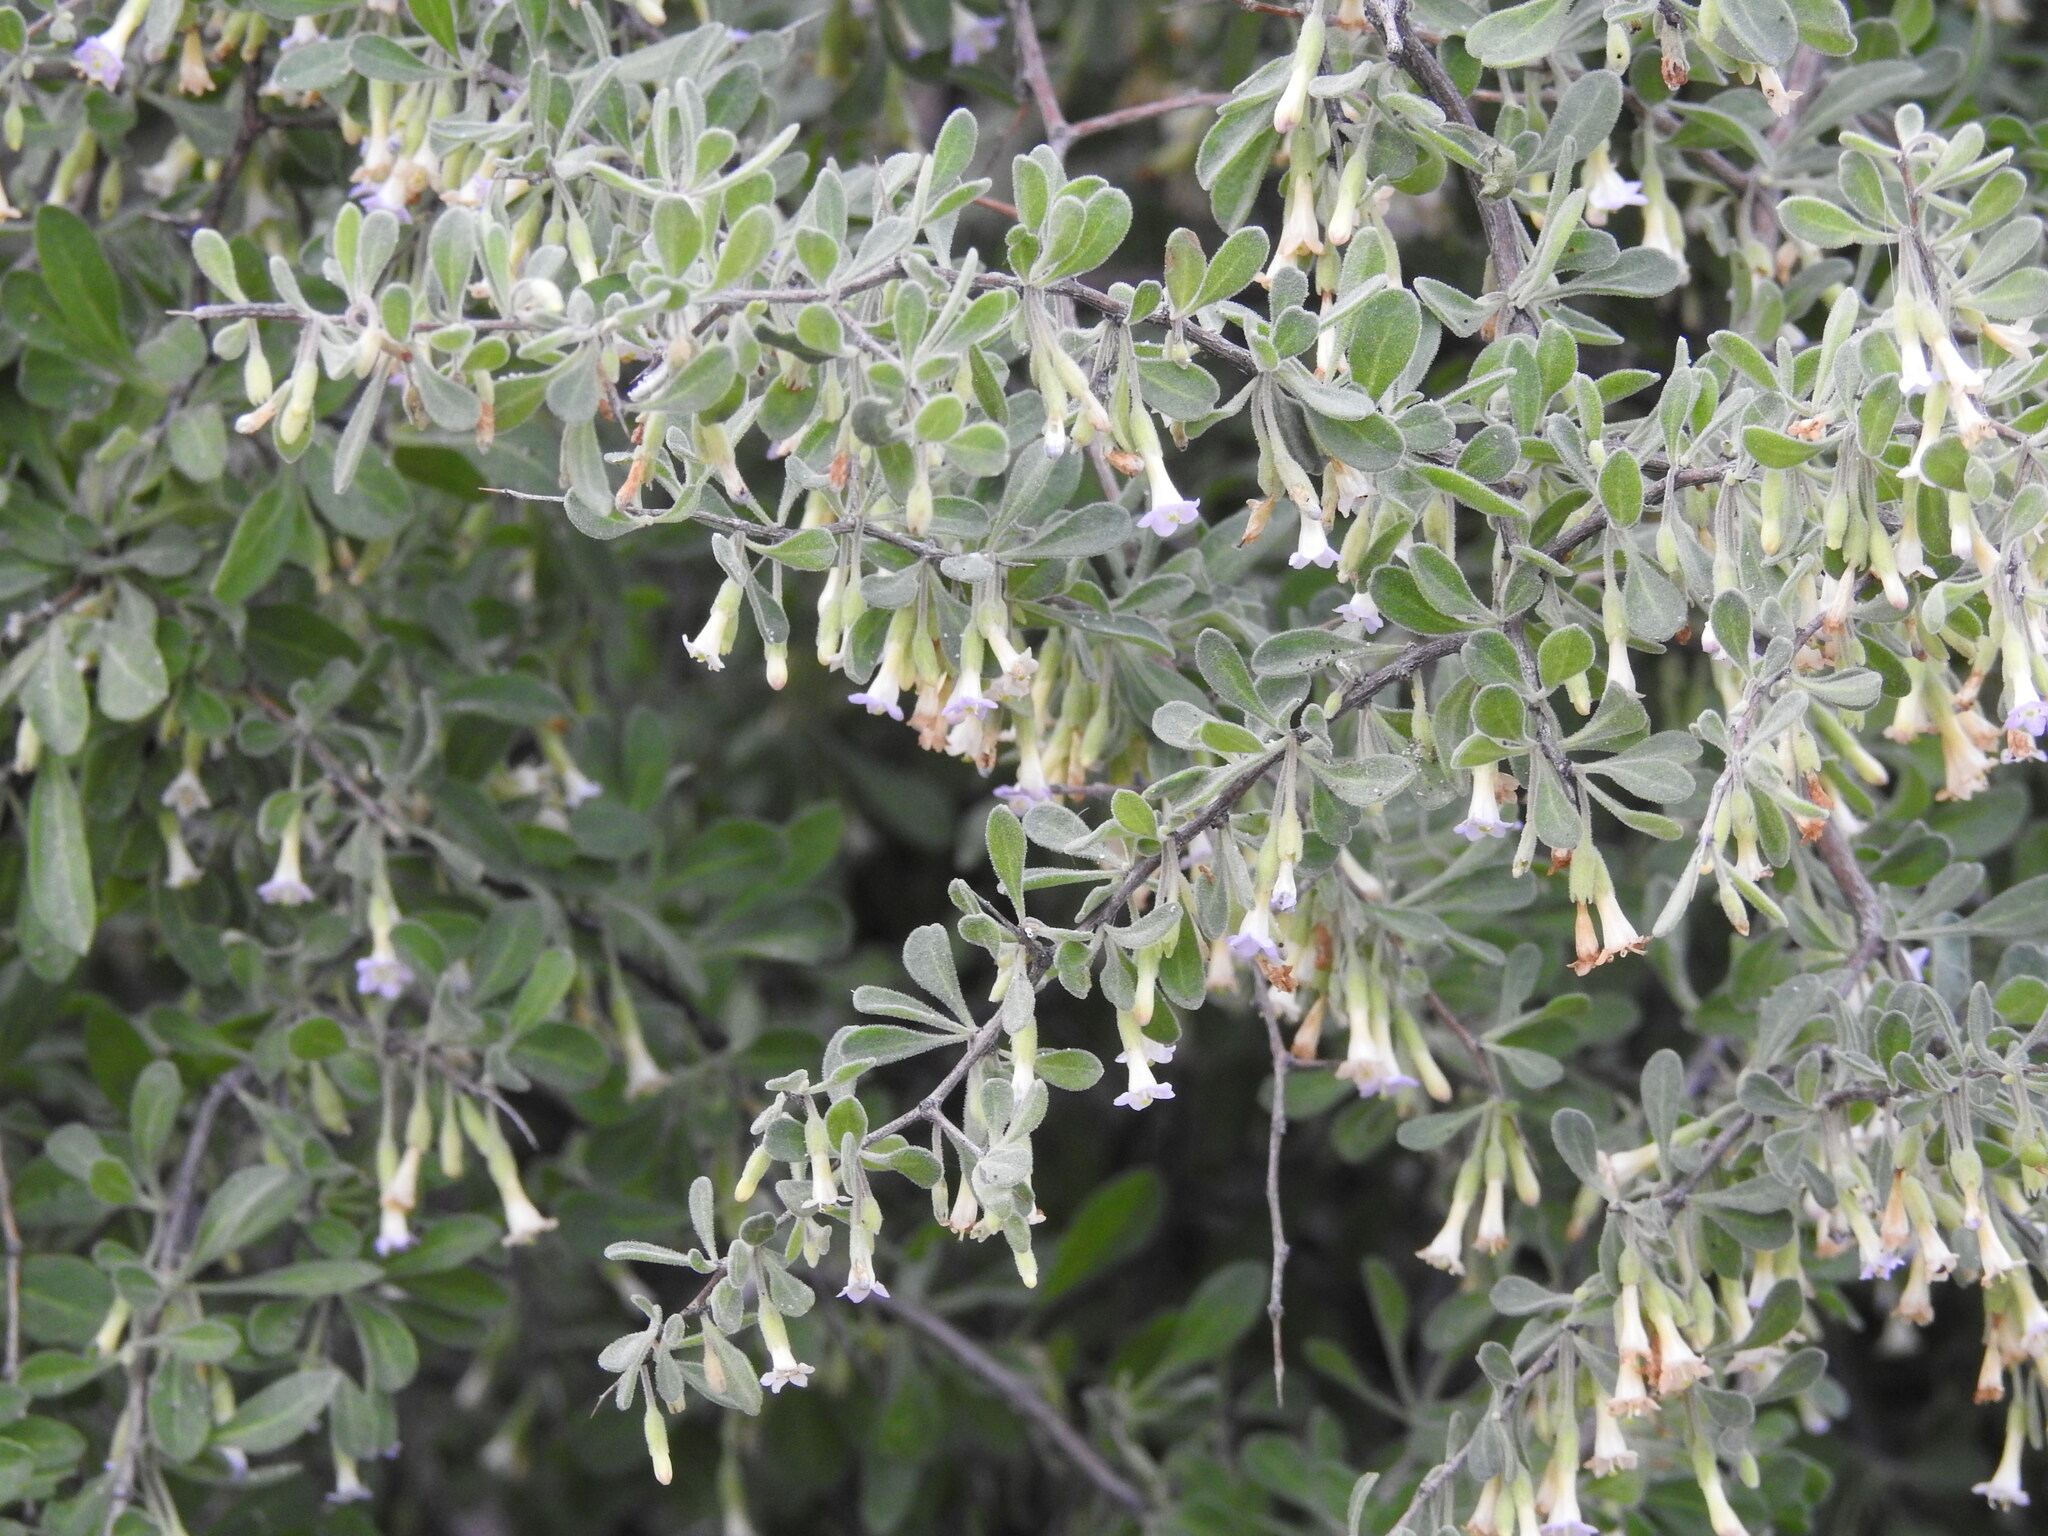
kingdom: Plantae
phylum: Tracheophyta
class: Magnoliopsida
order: Solanales
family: Solanaceae
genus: Lycium
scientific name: Lycium exsertum
